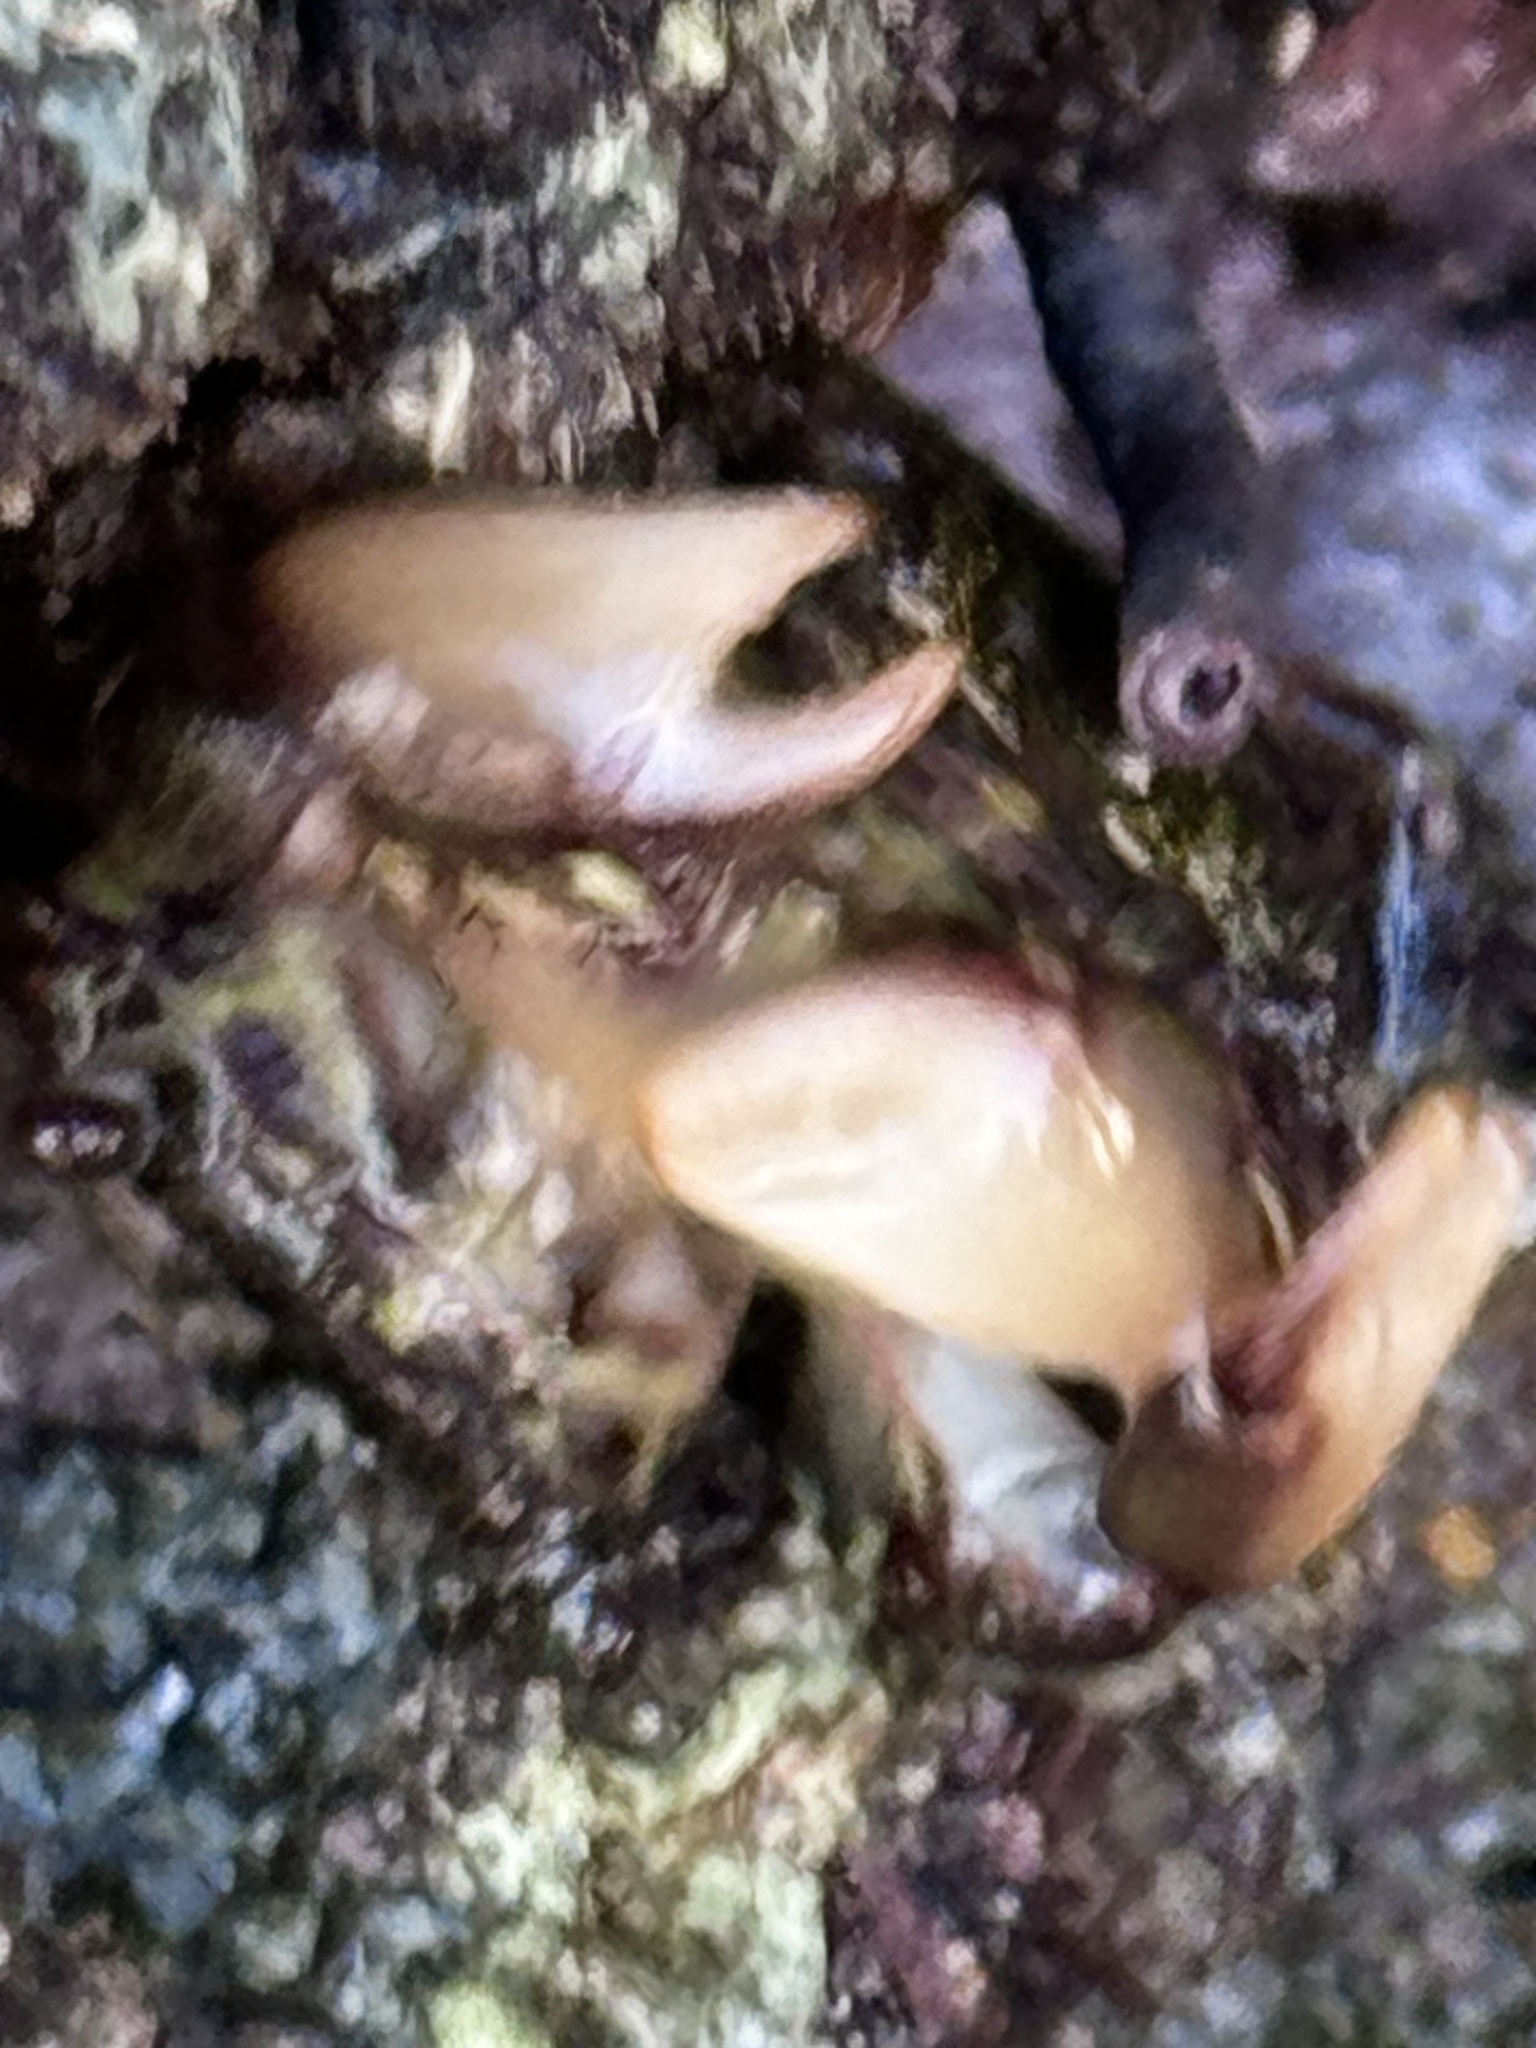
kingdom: Animalia
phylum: Arthropoda
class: Malacostraca
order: Decapoda
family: Grapsidae
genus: Pachygrapsus
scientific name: Pachygrapsus socius
